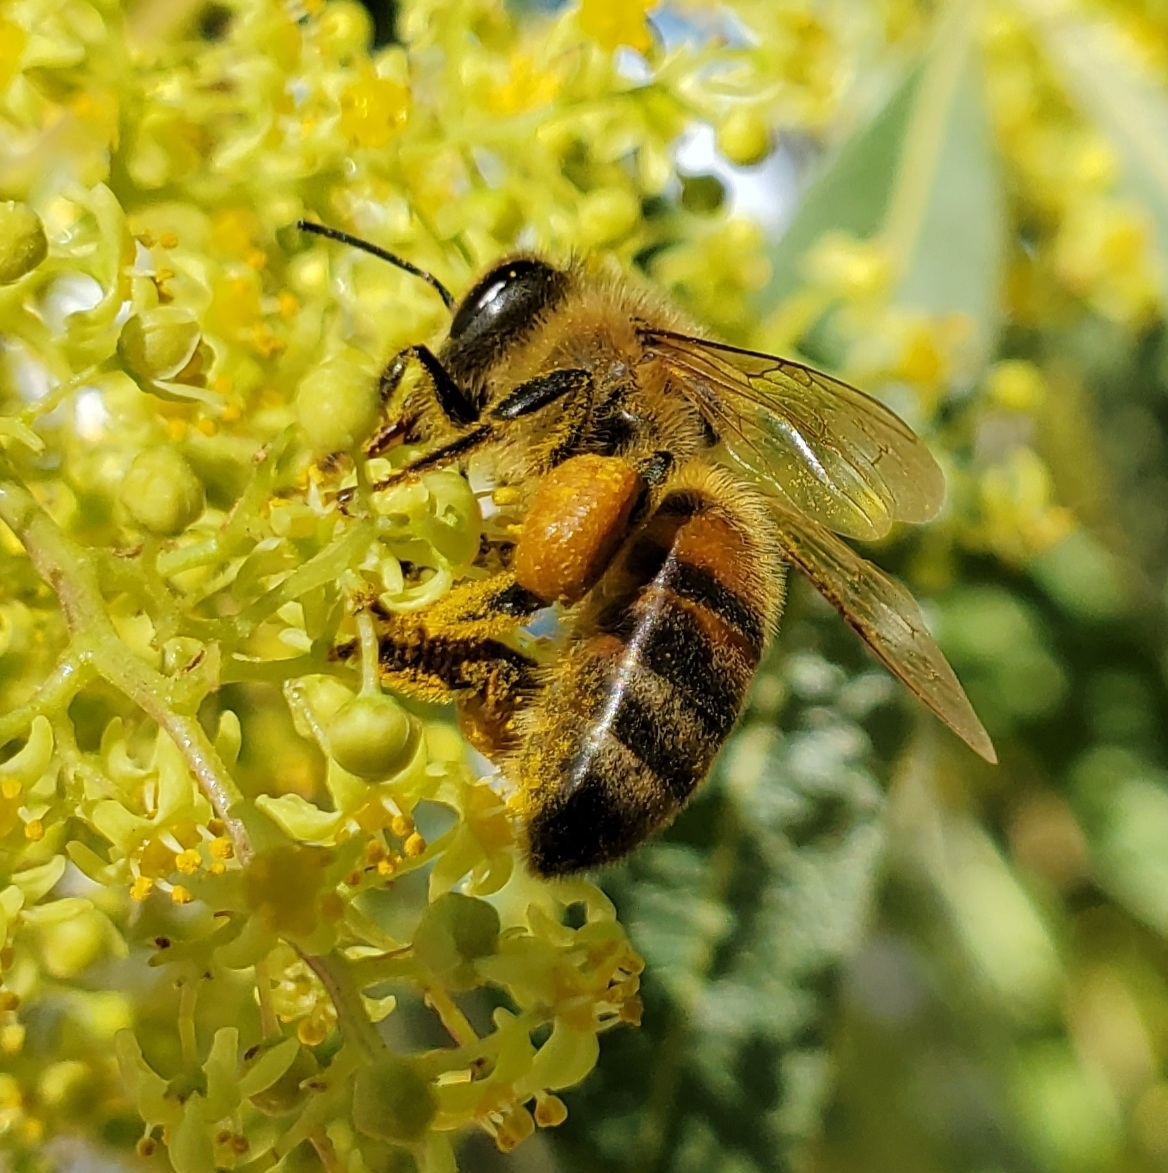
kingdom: Animalia
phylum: Arthropoda
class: Insecta
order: Hymenoptera
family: Apidae
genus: Apis
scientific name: Apis mellifera
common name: Honey bee
